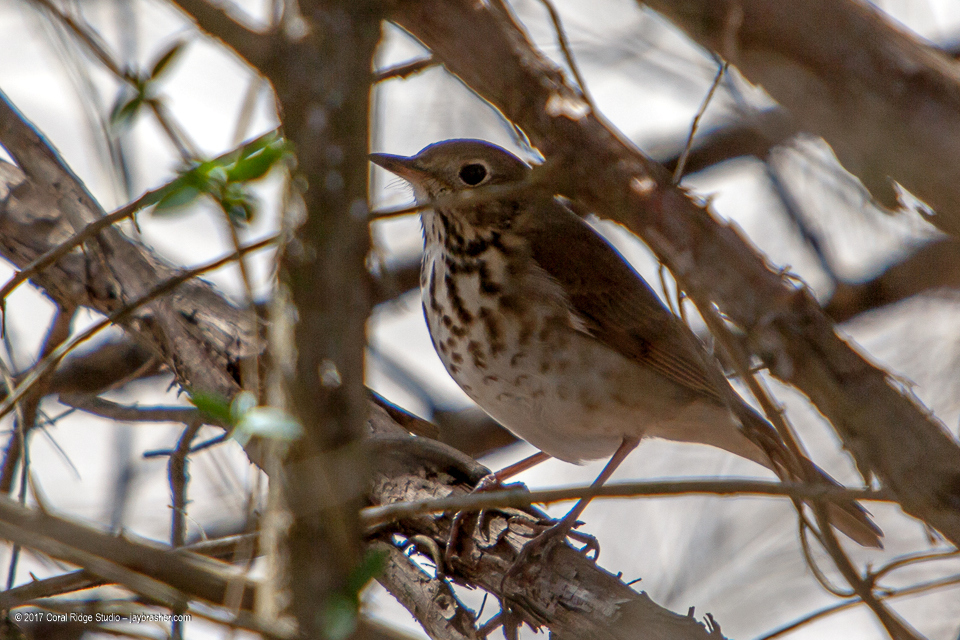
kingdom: Animalia
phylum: Chordata
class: Aves
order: Passeriformes
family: Turdidae
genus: Catharus
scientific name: Catharus guttatus
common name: Hermit thrush
